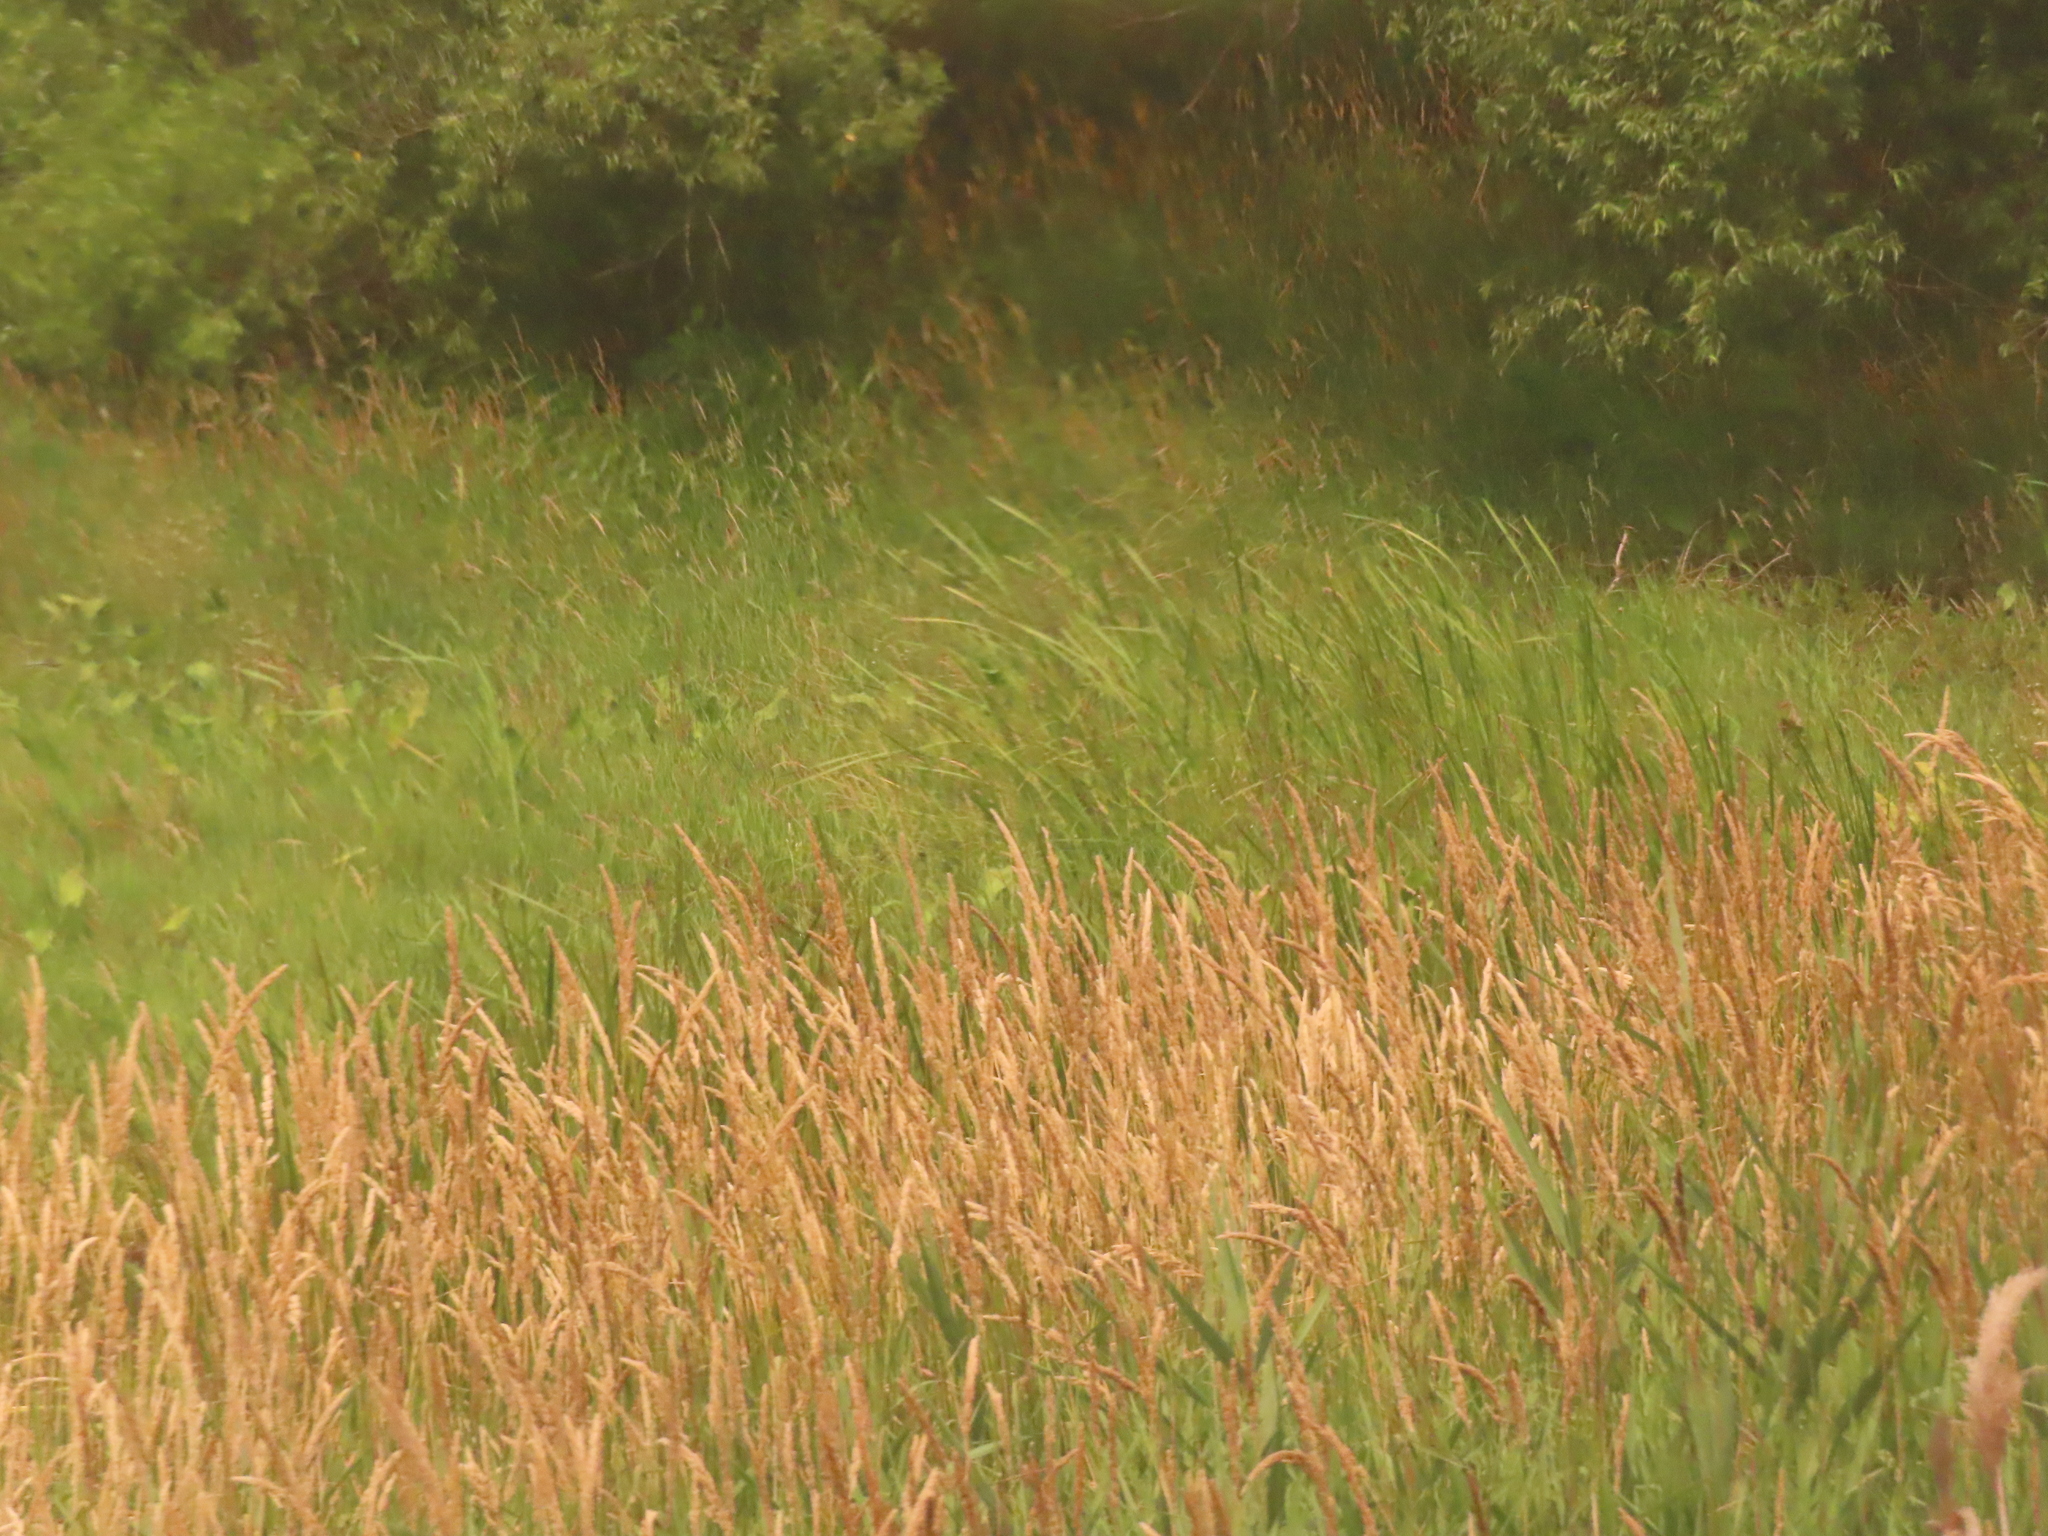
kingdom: Plantae
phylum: Tracheophyta
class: Liliopsida
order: Poales
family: Poaceae
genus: Phalaris
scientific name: Phalaris arundinacea
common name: Reed canary-grass
